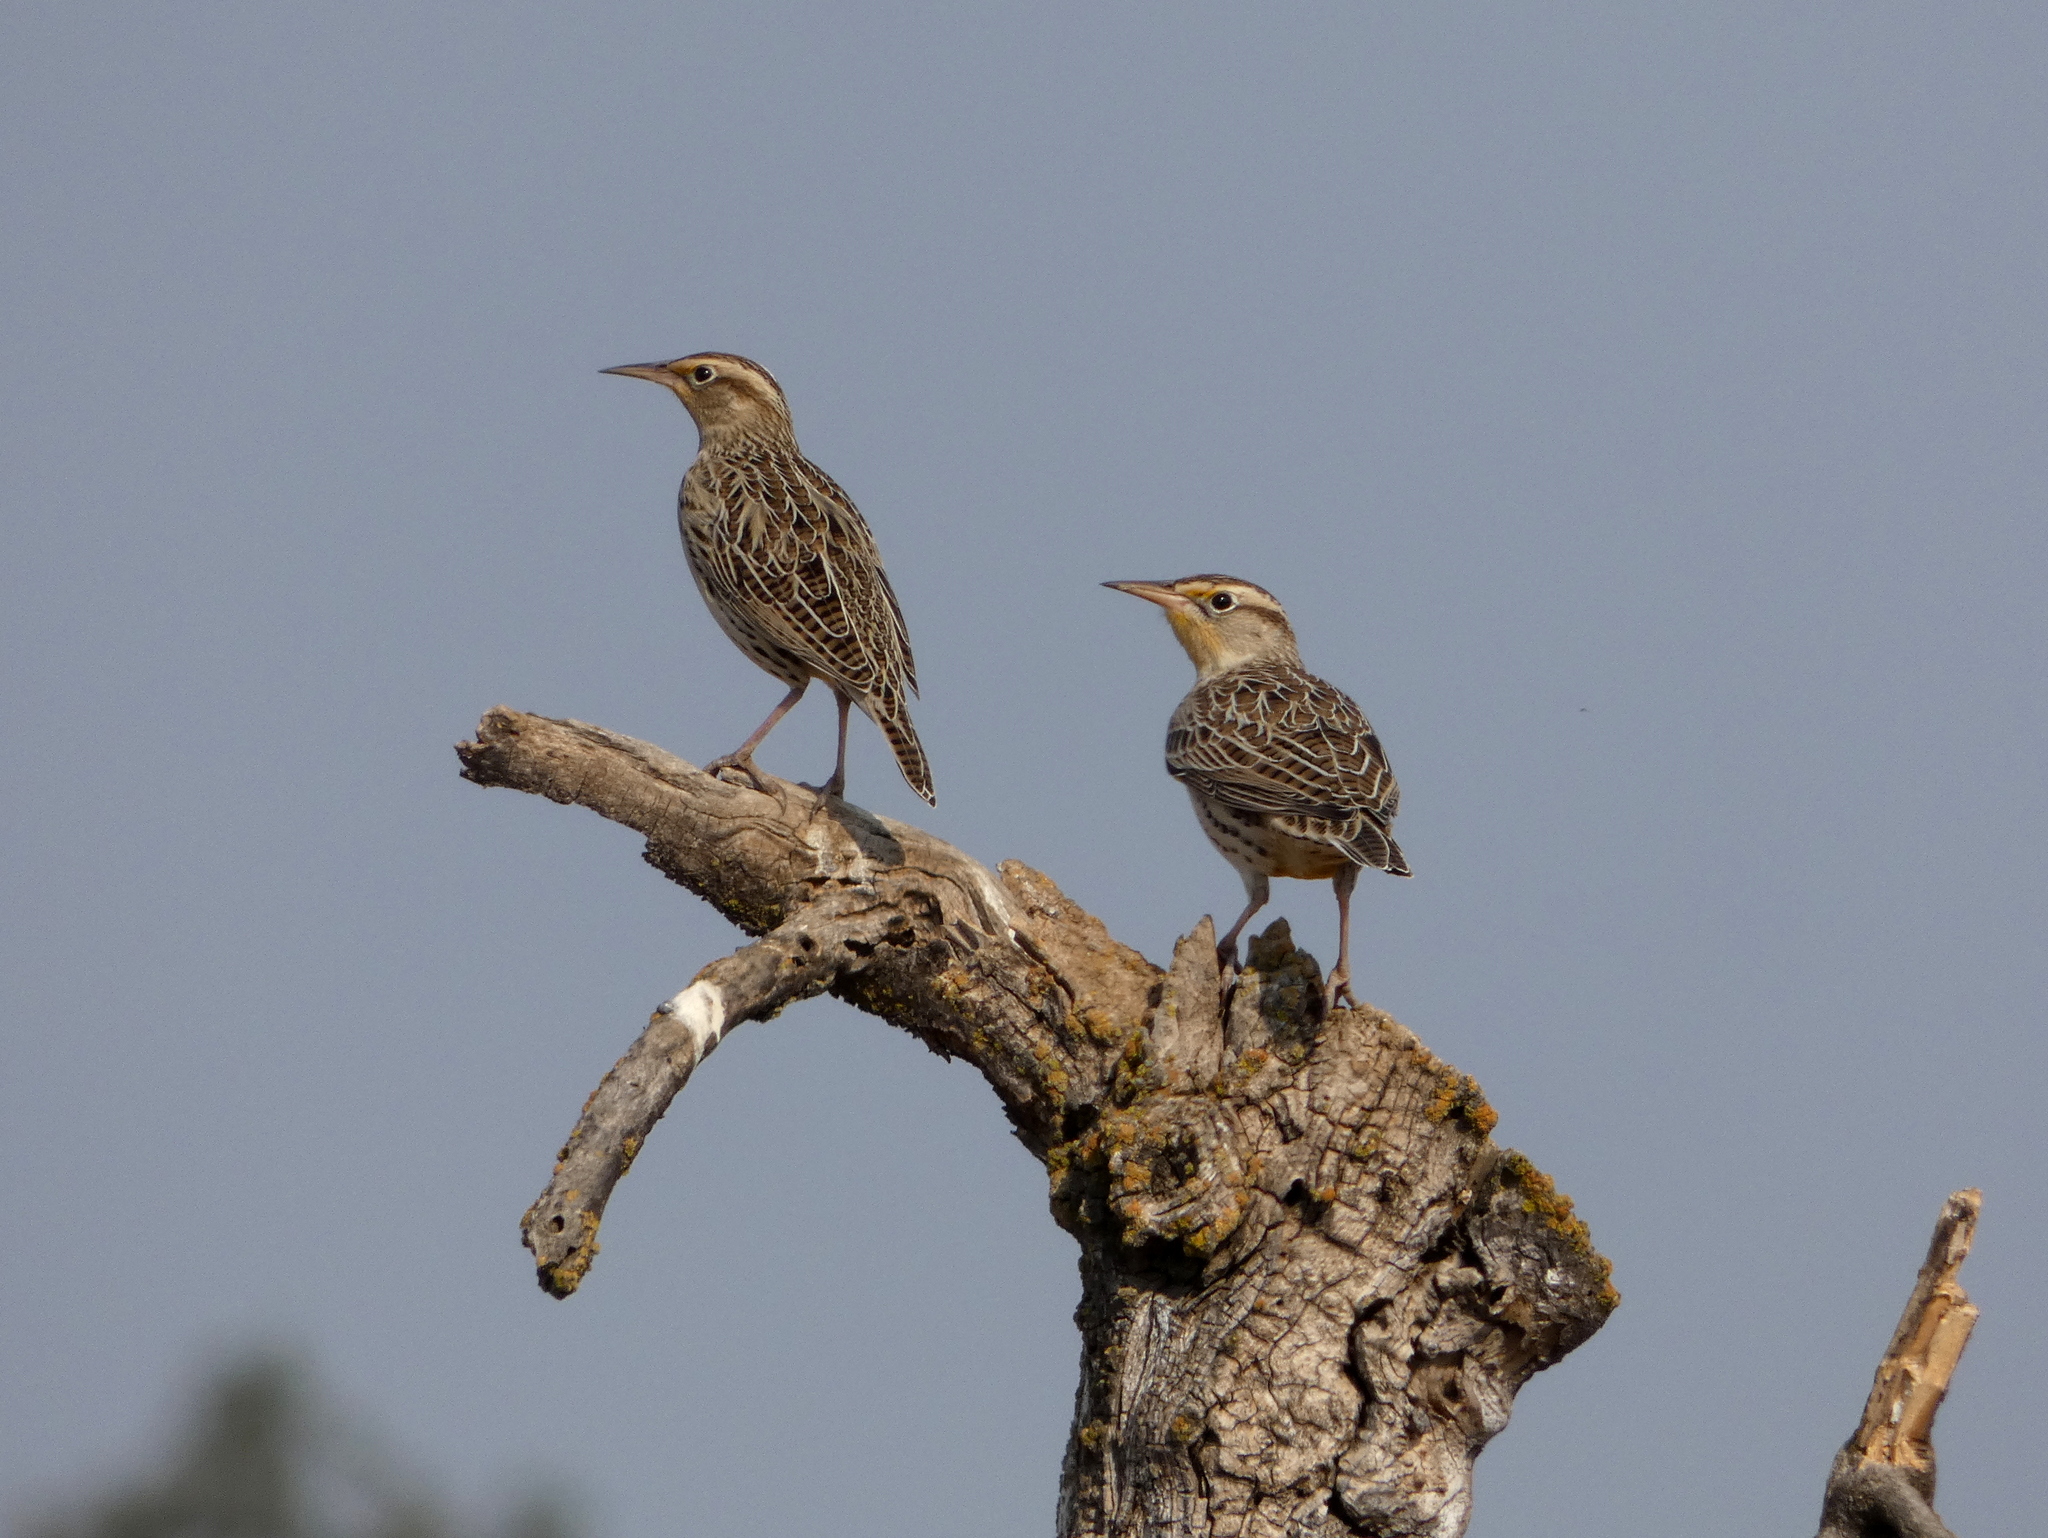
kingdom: Animalia
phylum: Chordata
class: Aves
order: Passeriformes
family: Icteridae
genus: Sturnella
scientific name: Sturnella neglecta
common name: Western meadowlark
